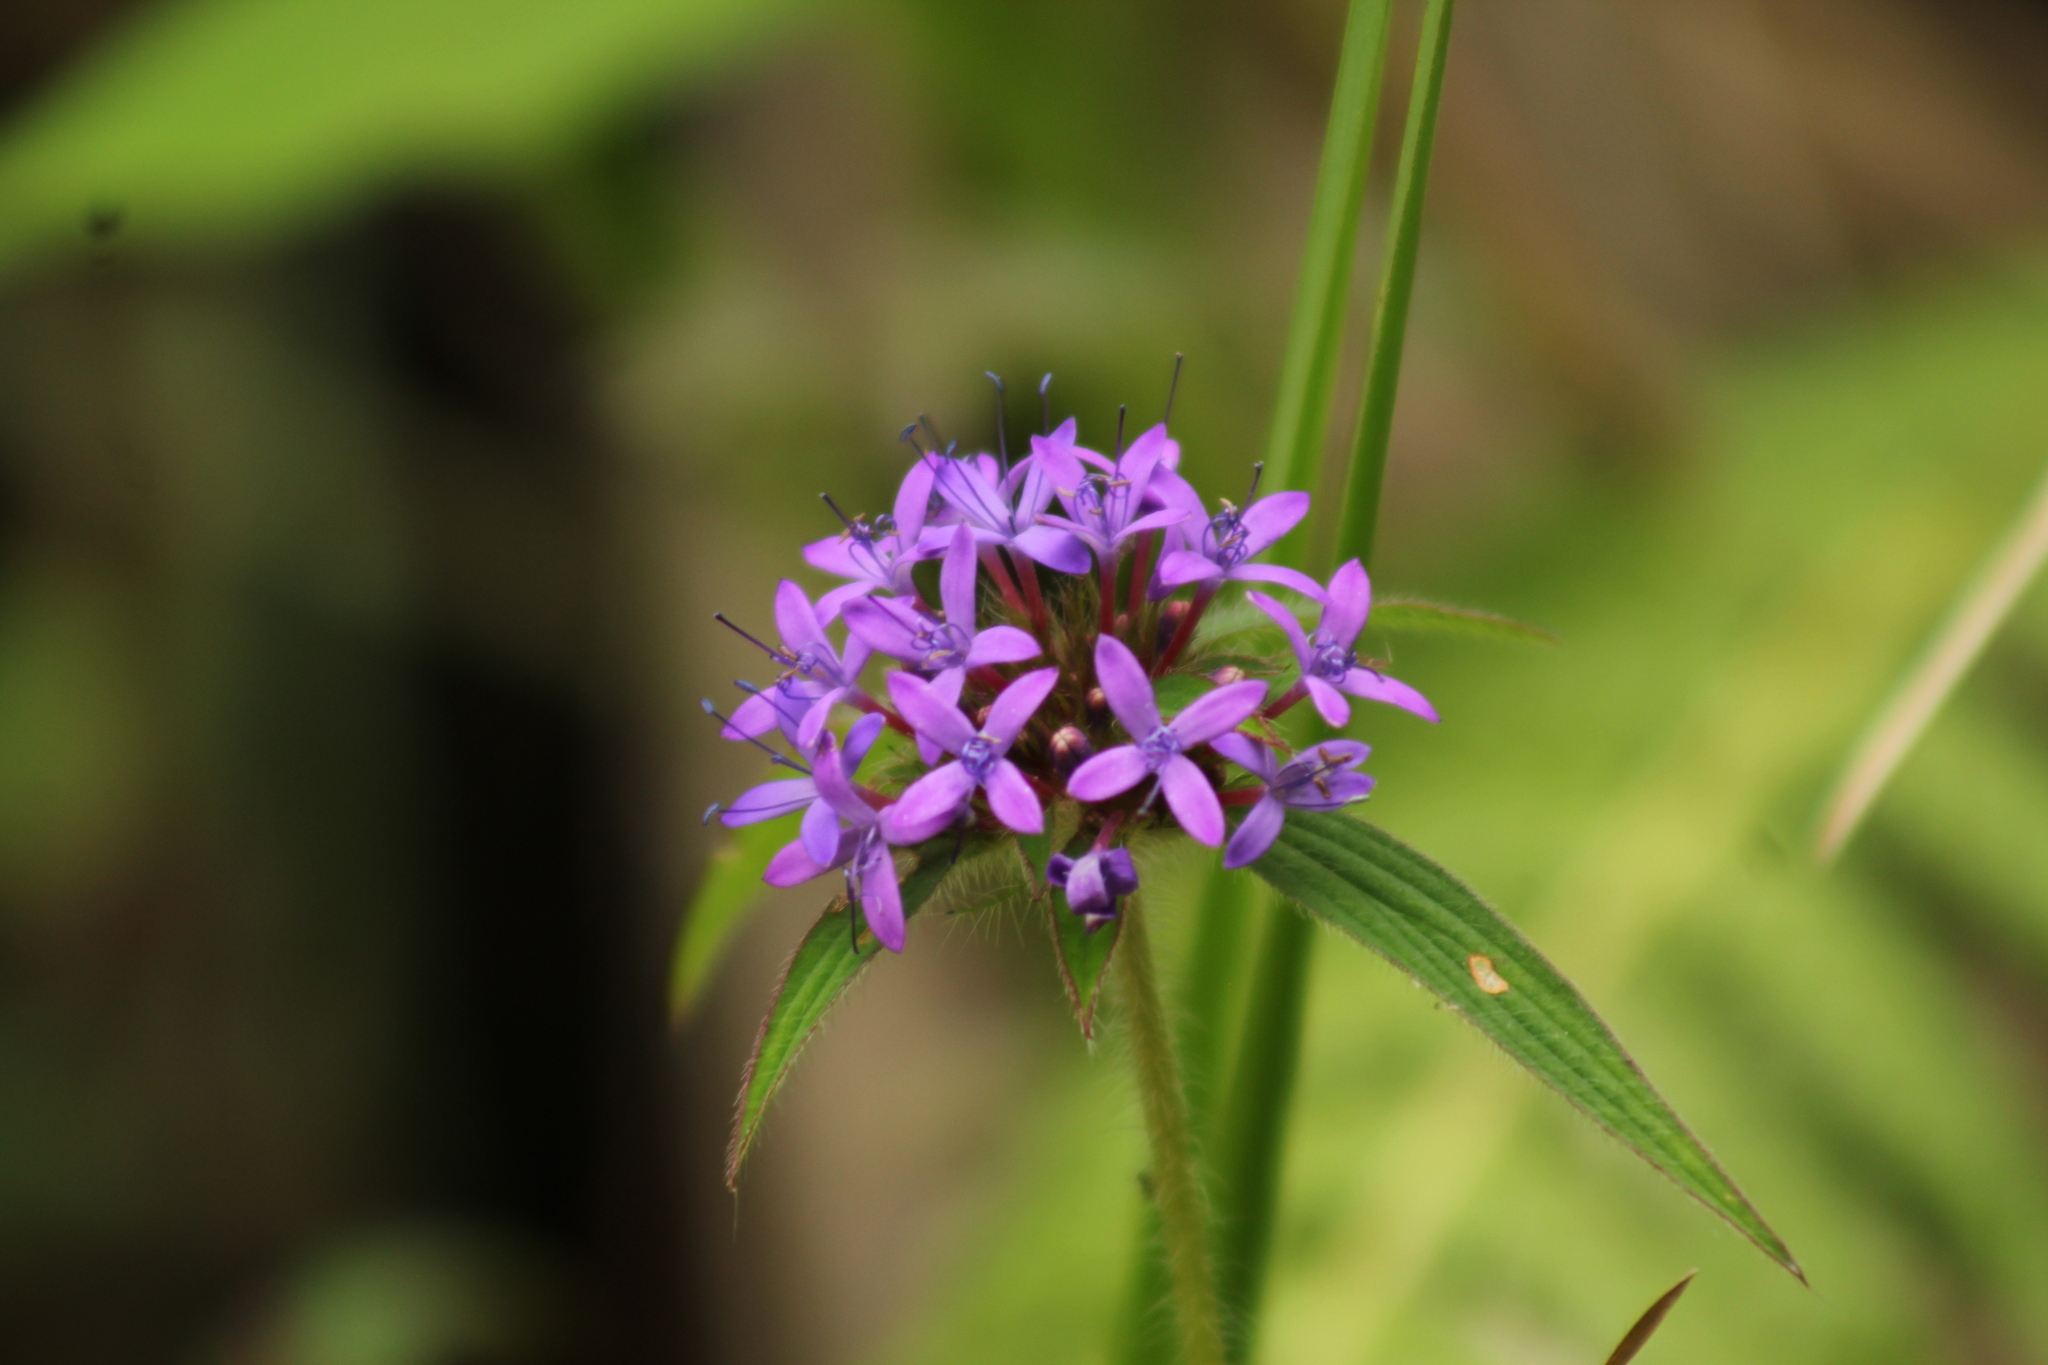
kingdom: Plantae
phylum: Tracheophyta
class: Magnoliopsida
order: Gentianales
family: Rubiaceae
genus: Crusea
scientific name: Crusea hispida
